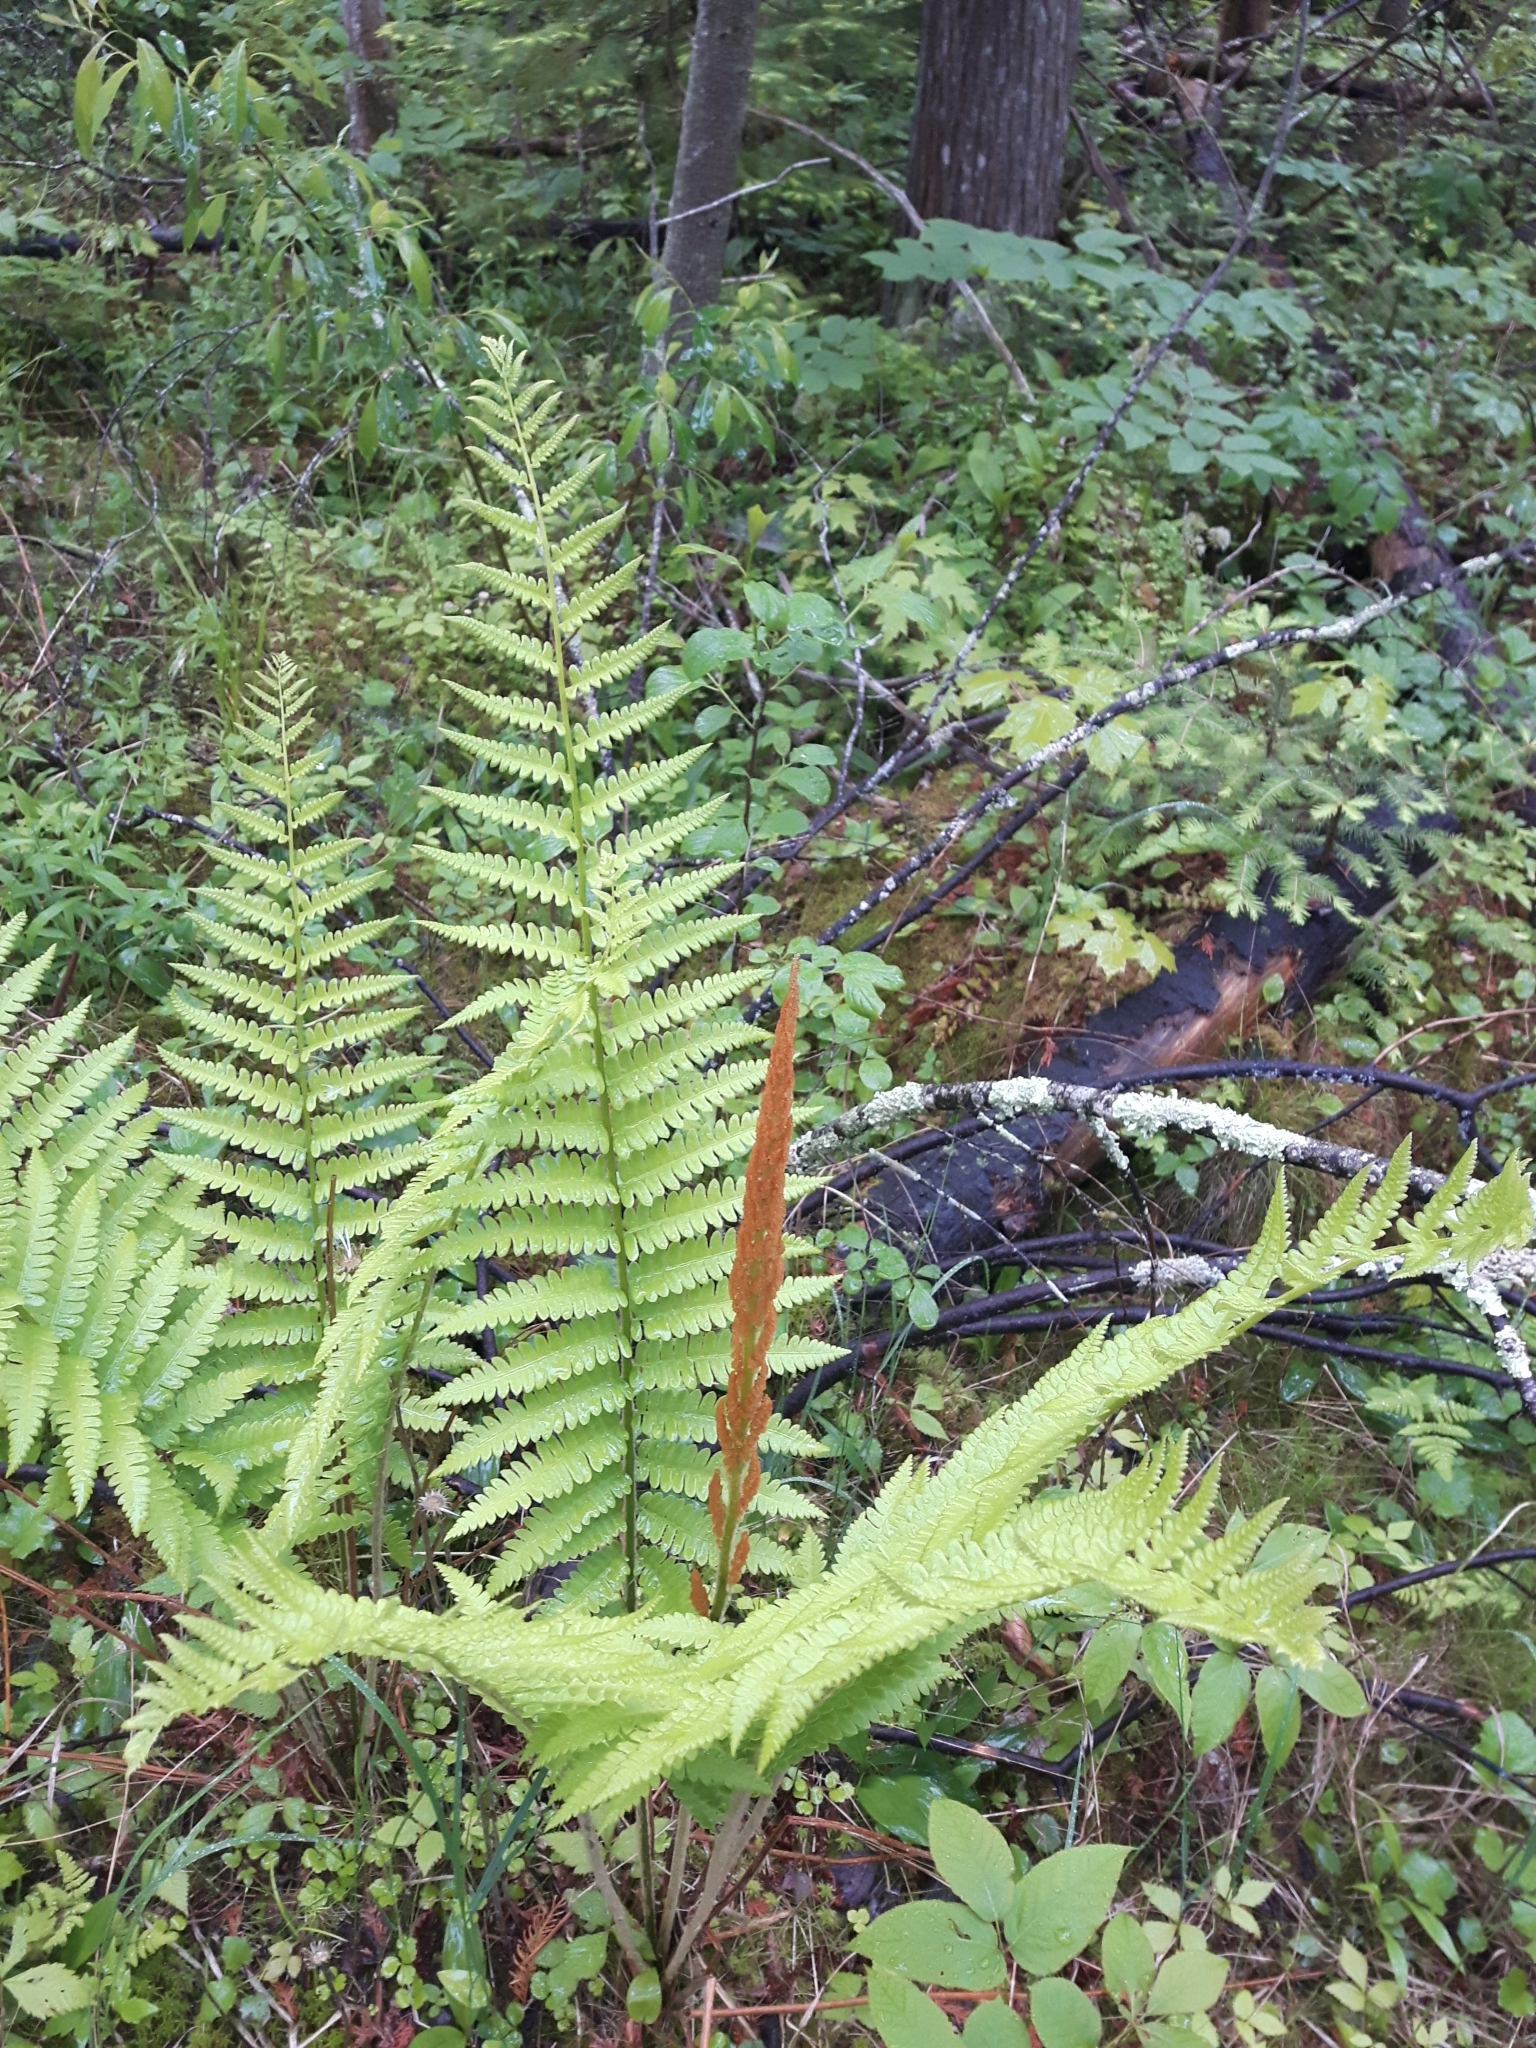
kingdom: Plantae
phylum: Tracheophyta
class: Polypodiopsida
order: Osmundales
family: Osmundaceae
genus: Osmundastrum
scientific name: Osmundastrum cinnamomeum
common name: Cinnamon fern
